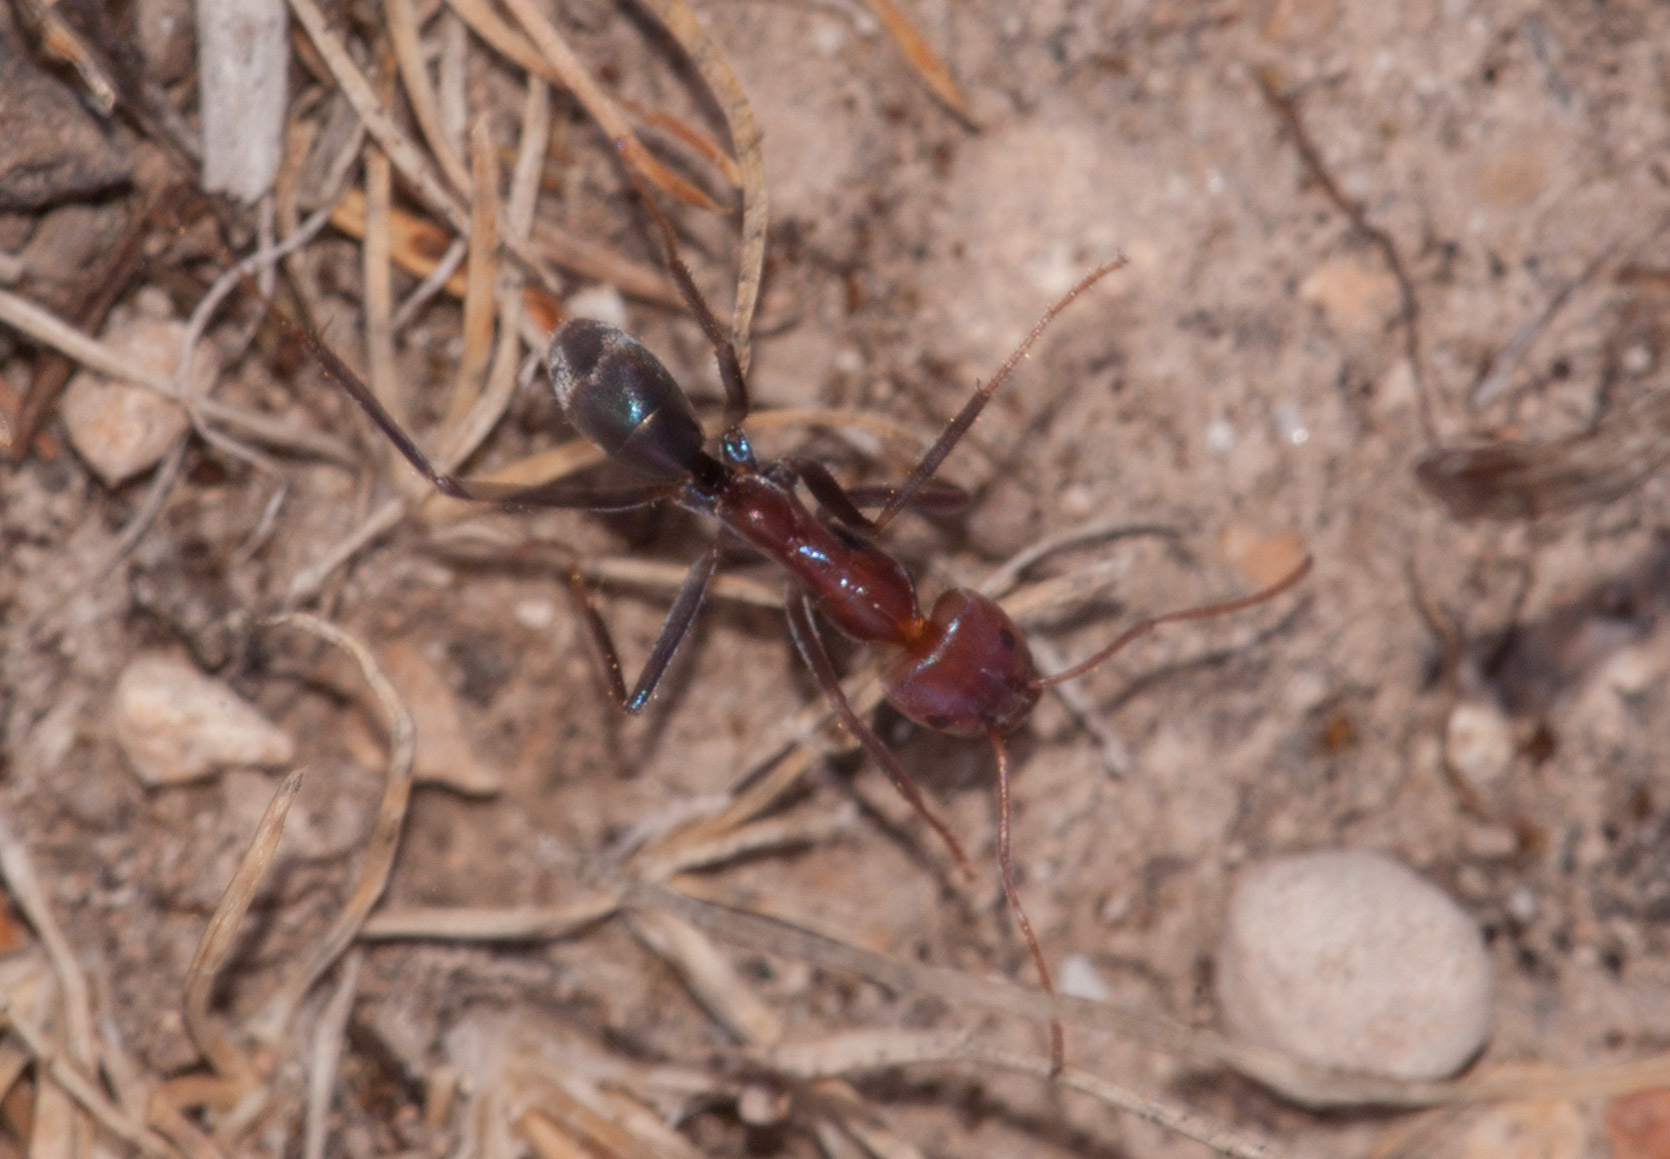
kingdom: Animalia
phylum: Arthropoda
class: Insecta
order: Hymenoptera
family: Formicidae
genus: Iridomyrmex
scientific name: Iridomyrmex purpureus
